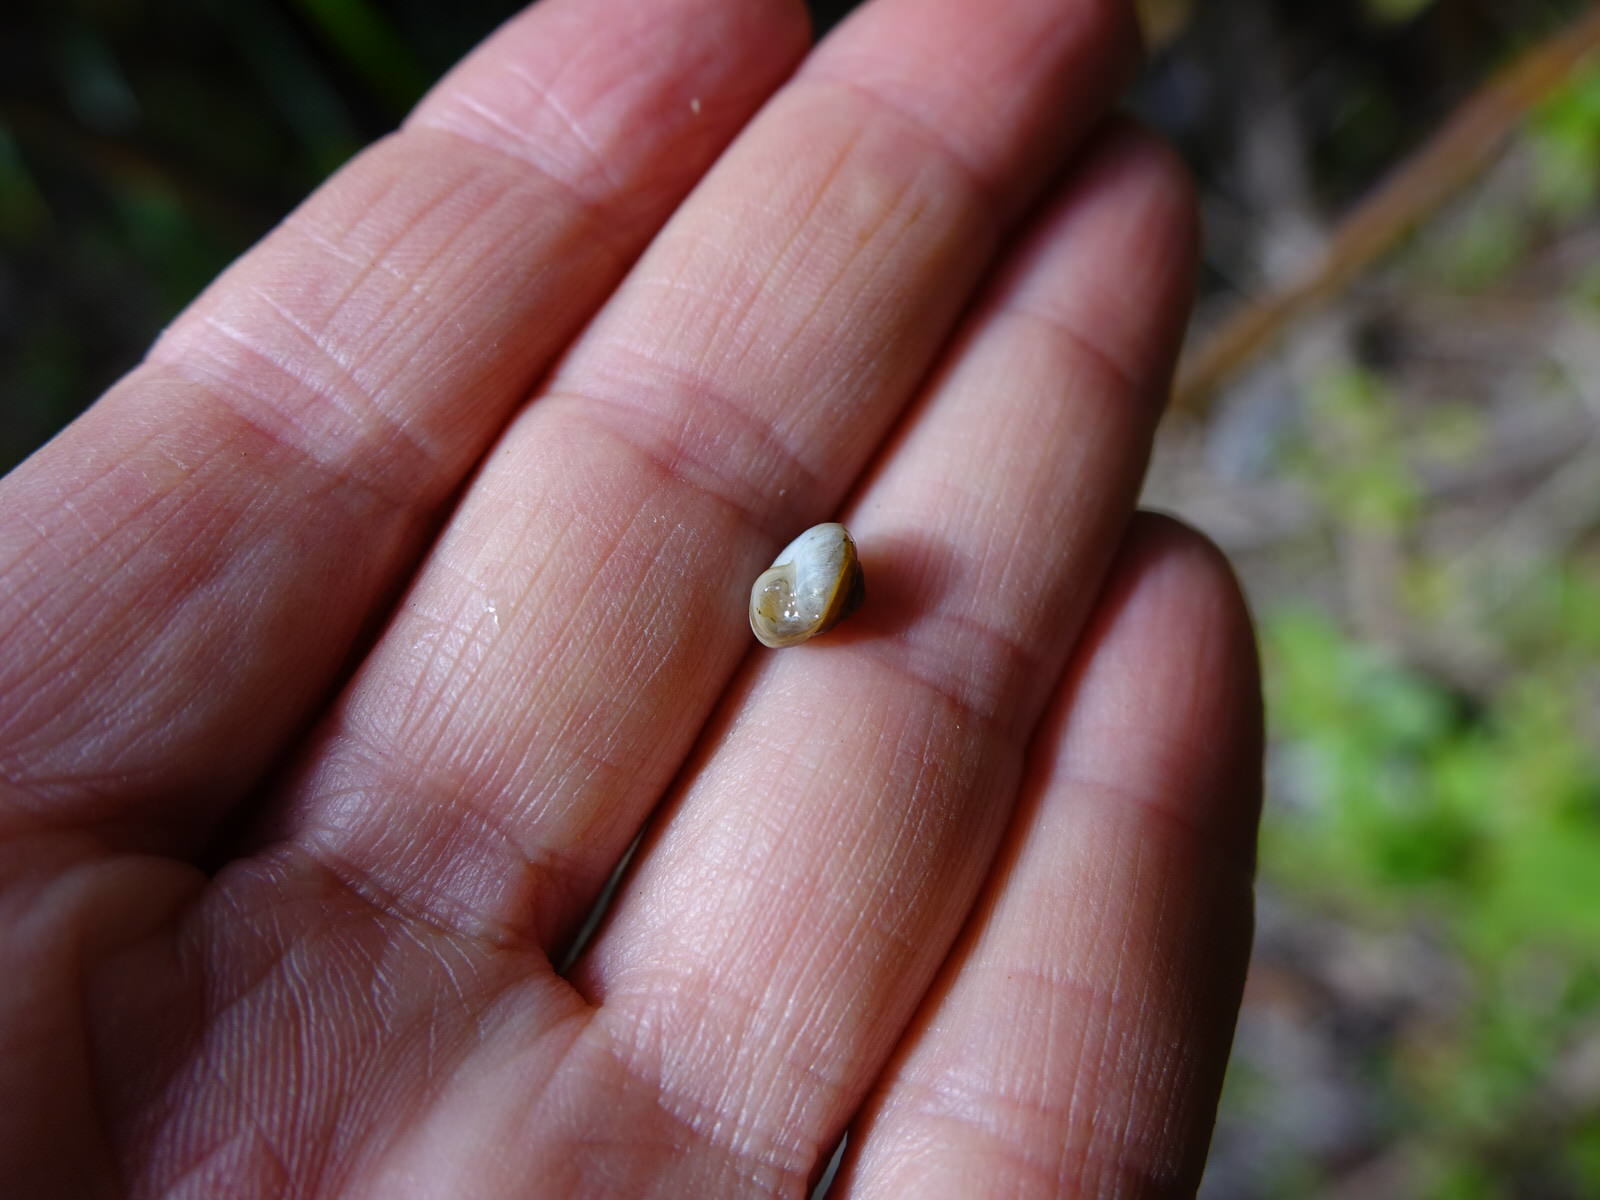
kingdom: Animalia
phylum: Mollusca
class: Gastropoda
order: Stylommatophora
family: Charopidae
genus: Serpho
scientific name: Serpho
